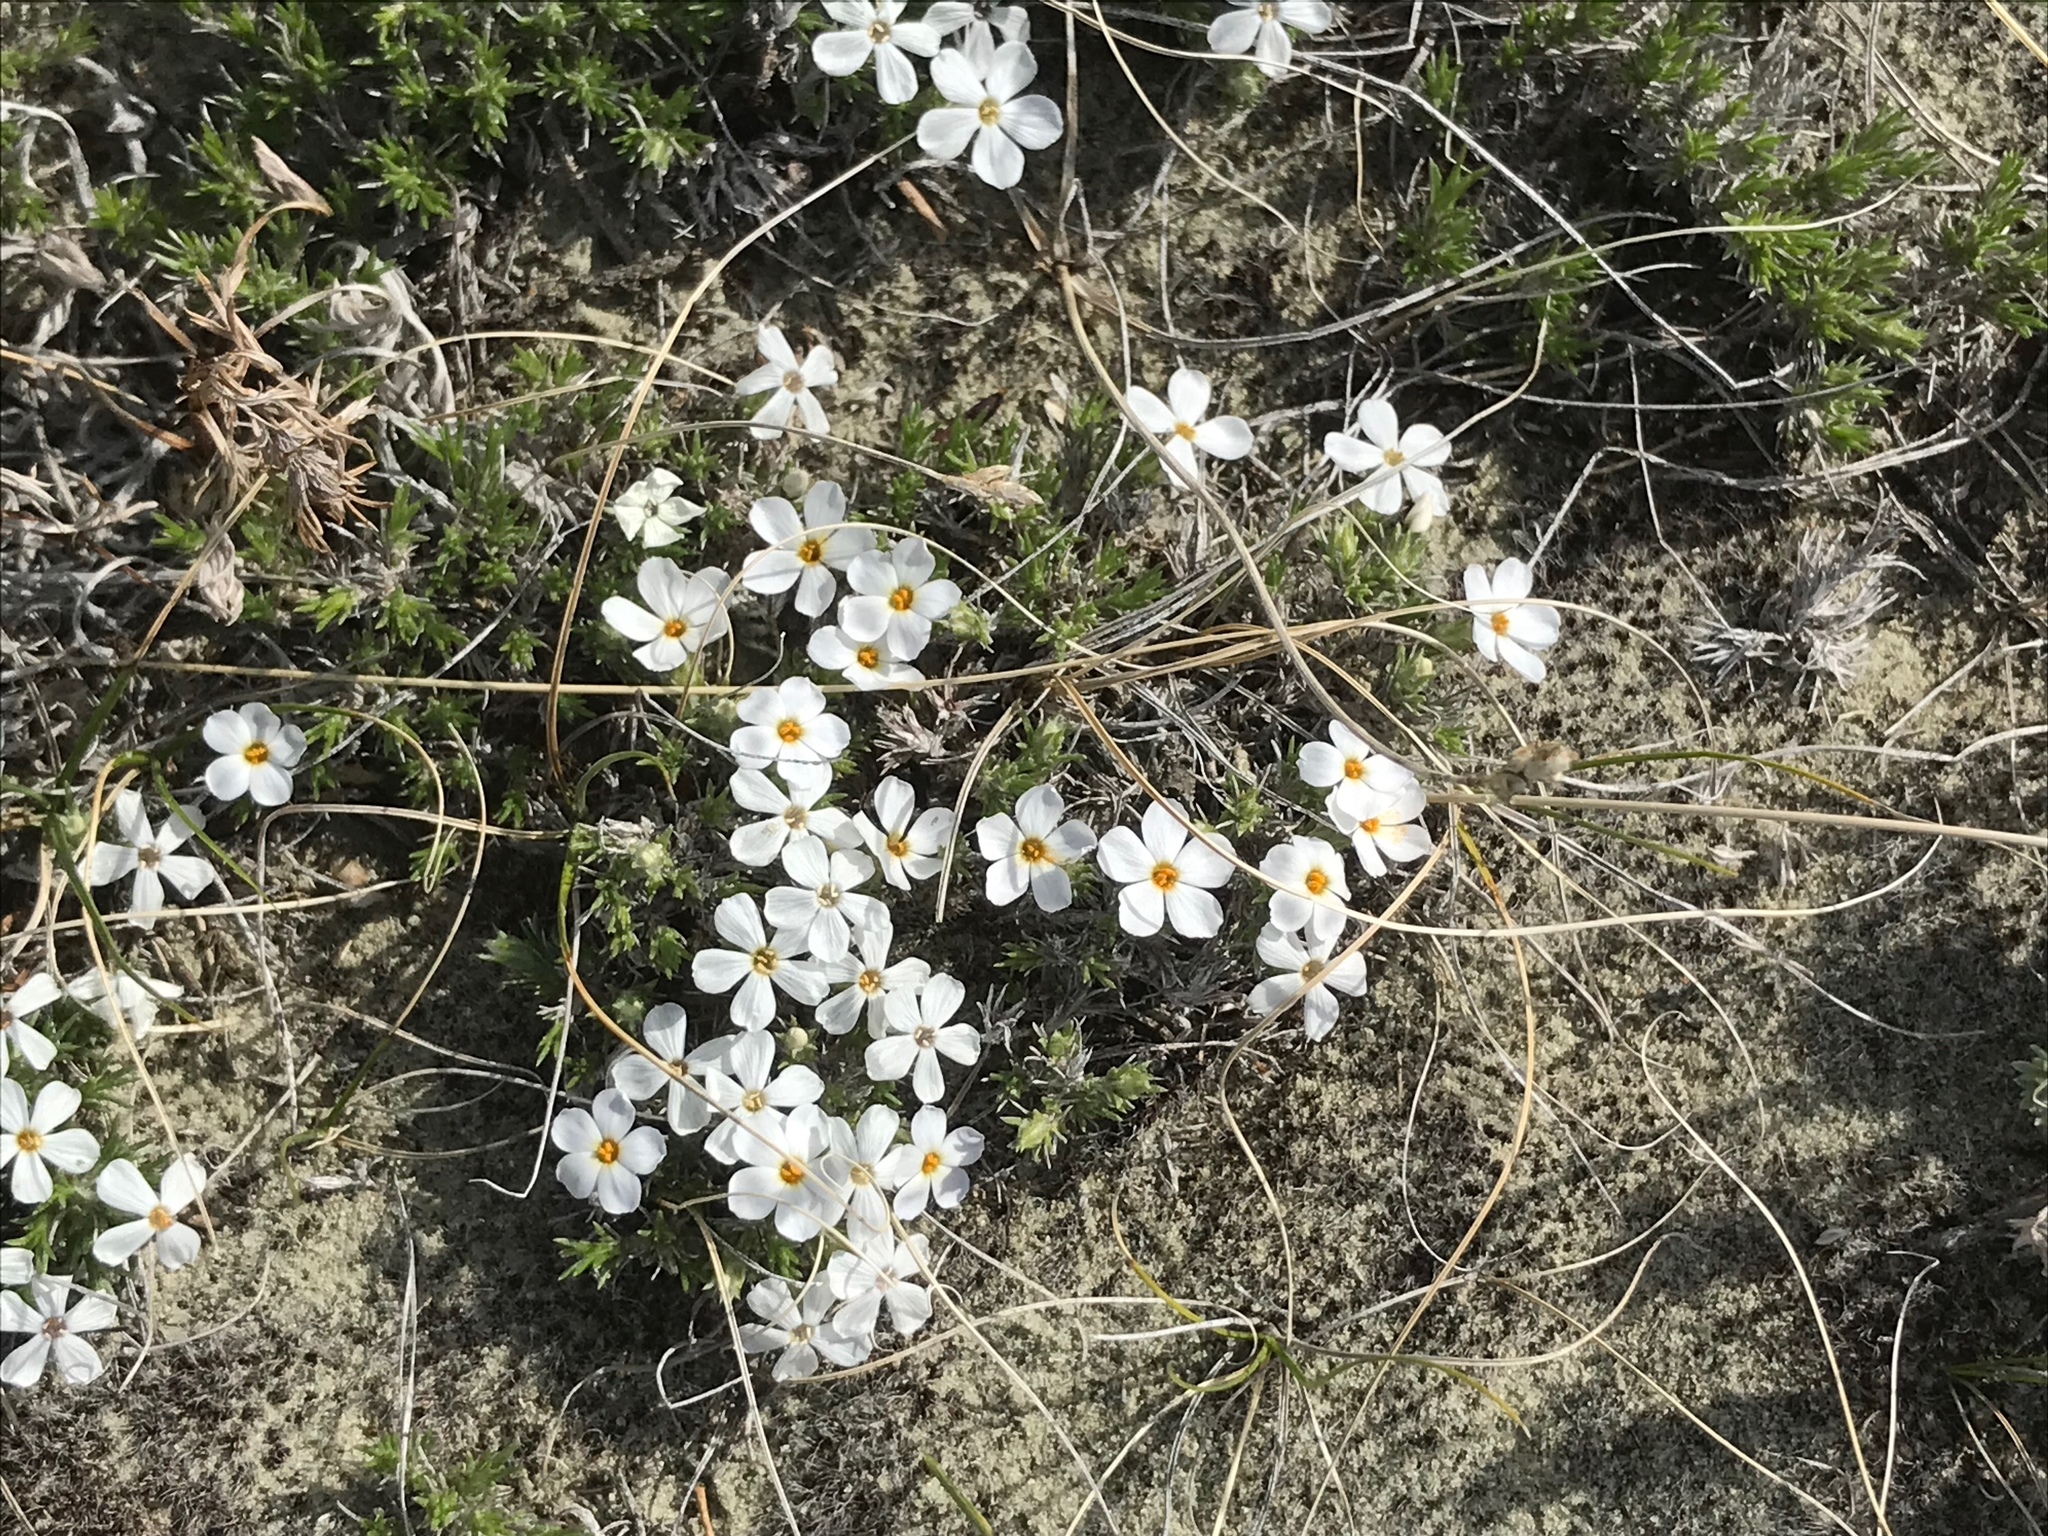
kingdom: Plantae
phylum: Tracheophyta
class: Magnoliopsida
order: Ericales
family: Polemoniaceae
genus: Phlox
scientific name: Phlox hoodii
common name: Moss phlox
